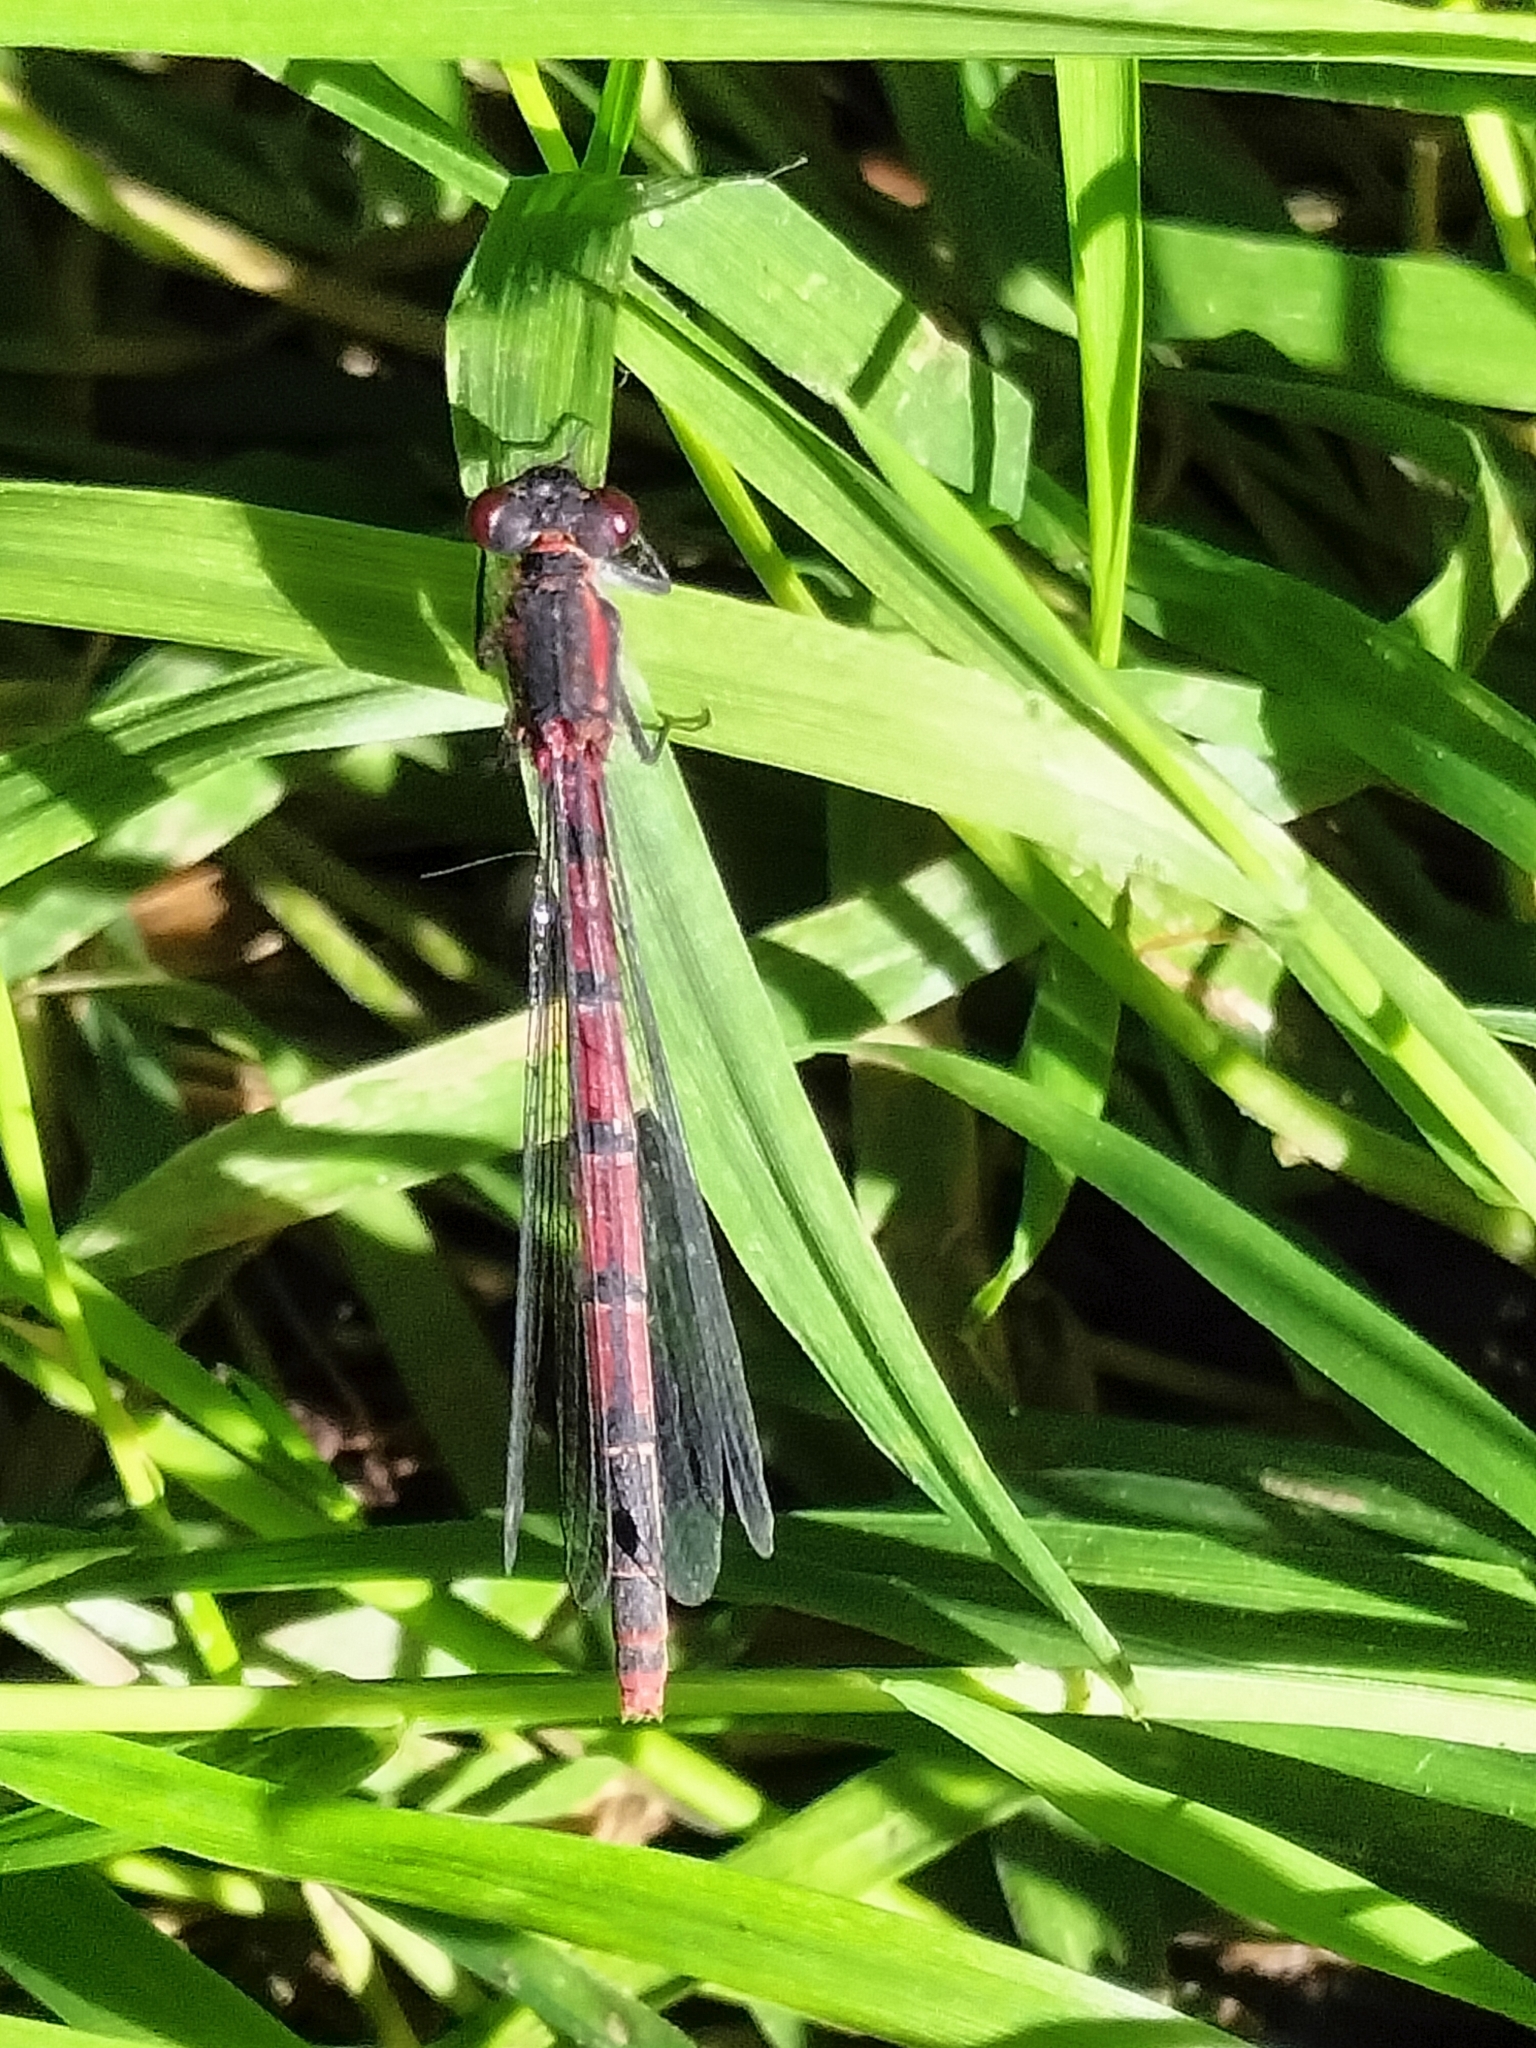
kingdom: Animalia
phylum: Arthropoda
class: Insecta
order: Odonata
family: Coenagrionidae
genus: Pyrrhosoma
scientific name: Pyrrhosoma nymphula
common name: Large red damsel
